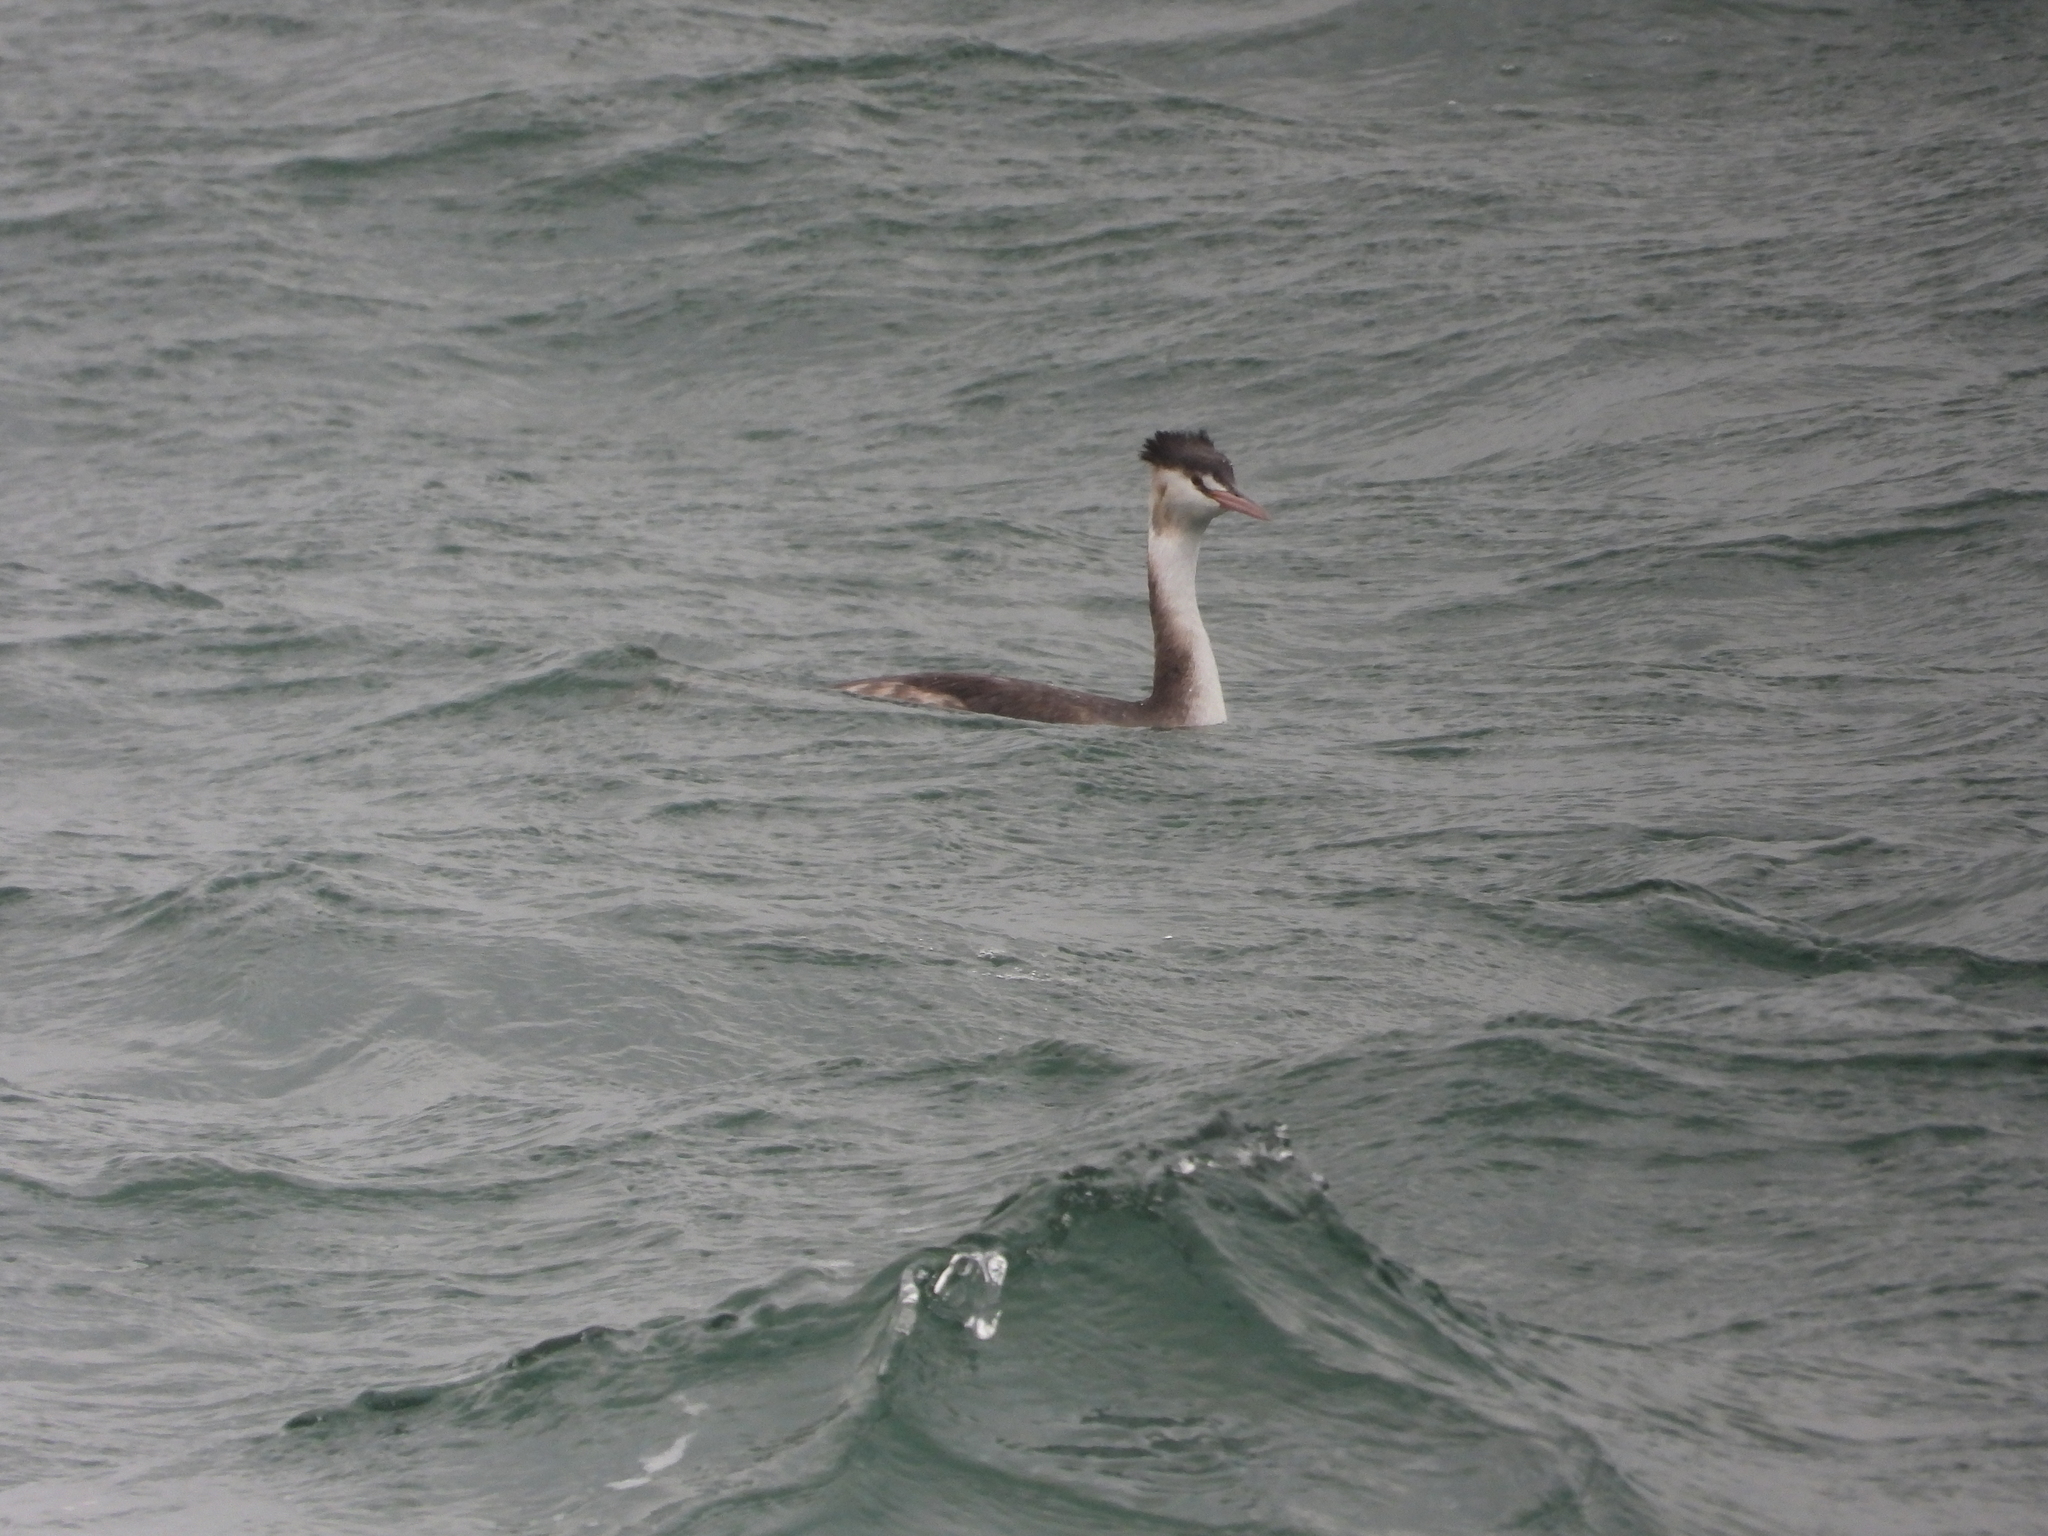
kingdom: Animalia
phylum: Chordata
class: Aves
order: Podicipediformes
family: Podicipedidae
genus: Podiceps
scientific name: Podiceps cristatus
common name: Great crested grebe
